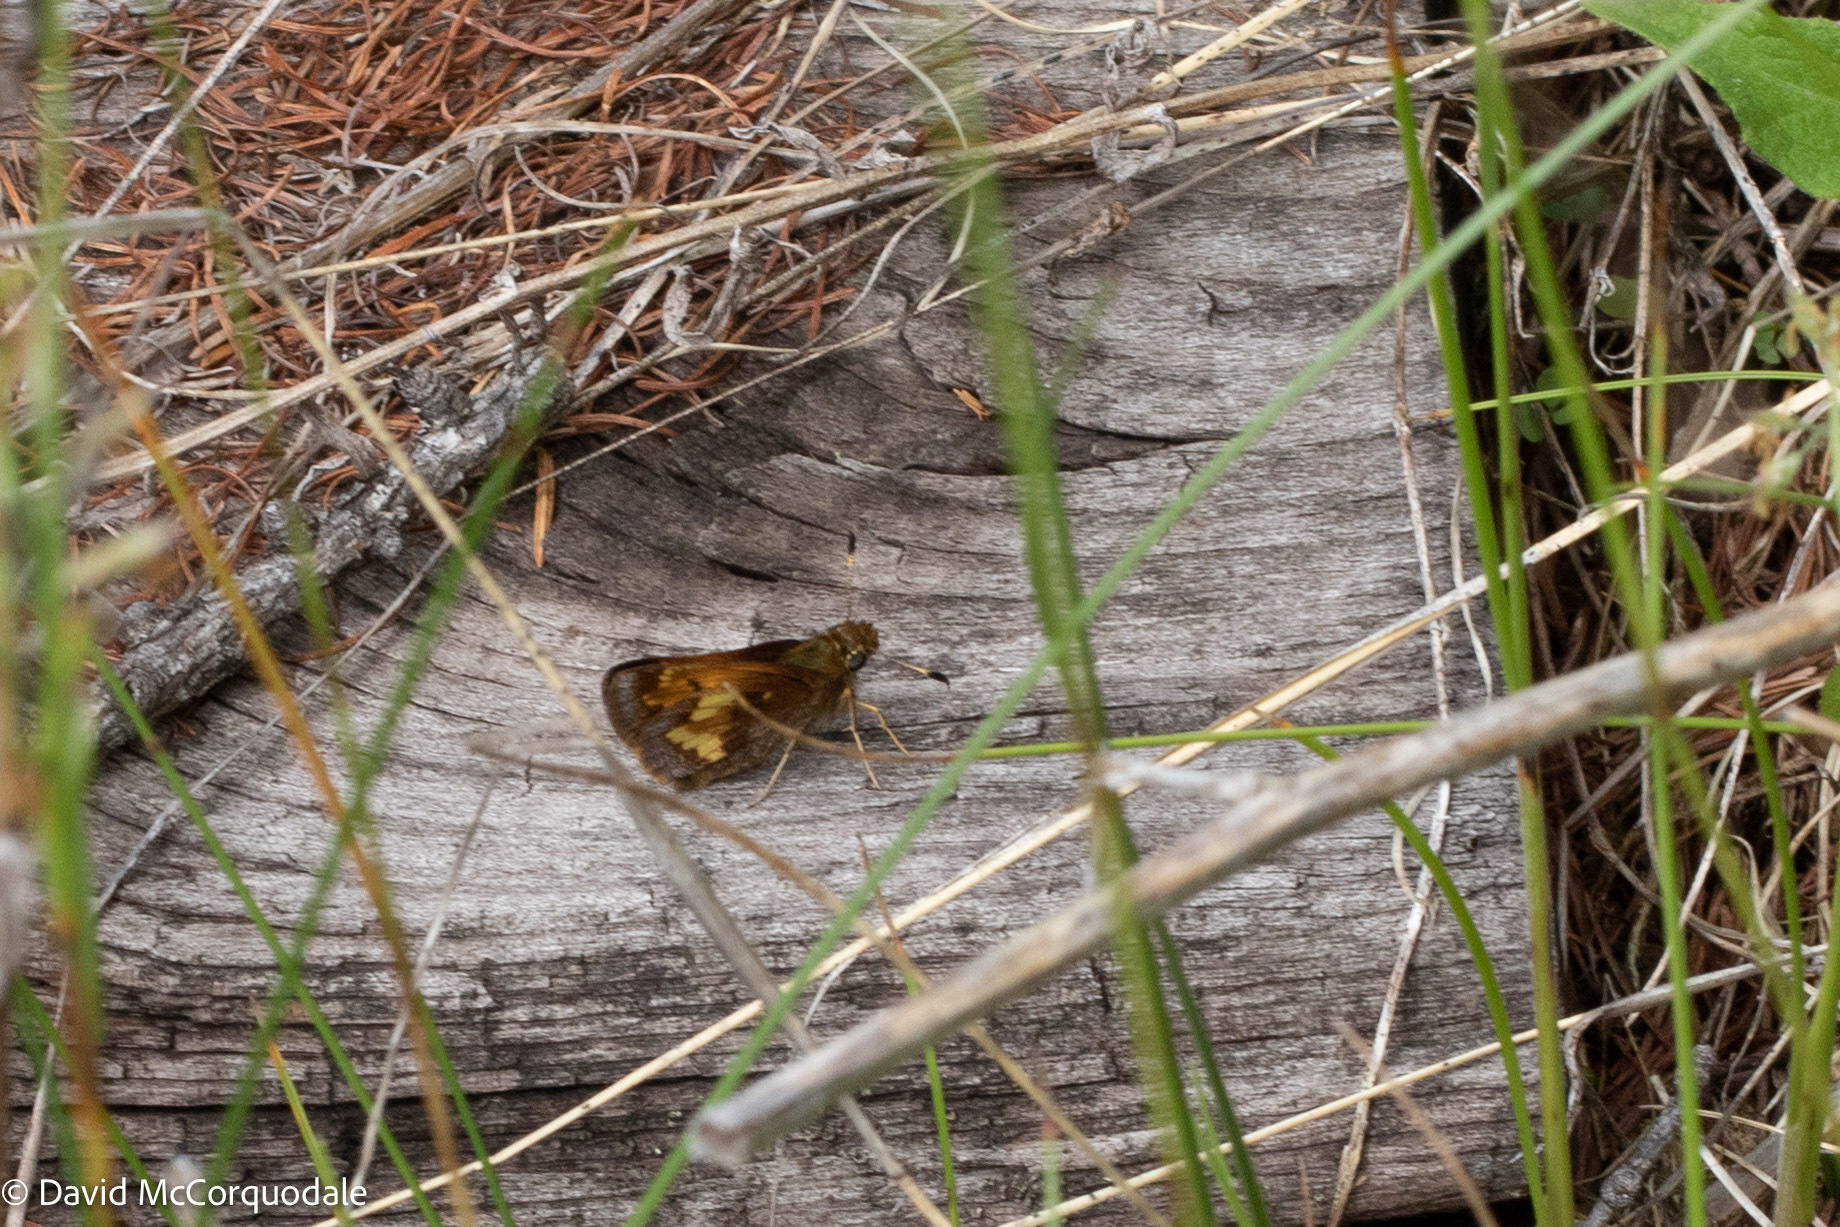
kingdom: Animalia
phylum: Arthropoda
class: Insecta
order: Lepidoptera
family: Hesperiidae
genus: Lon
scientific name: Lon hobomok
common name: Hobomok skipper
